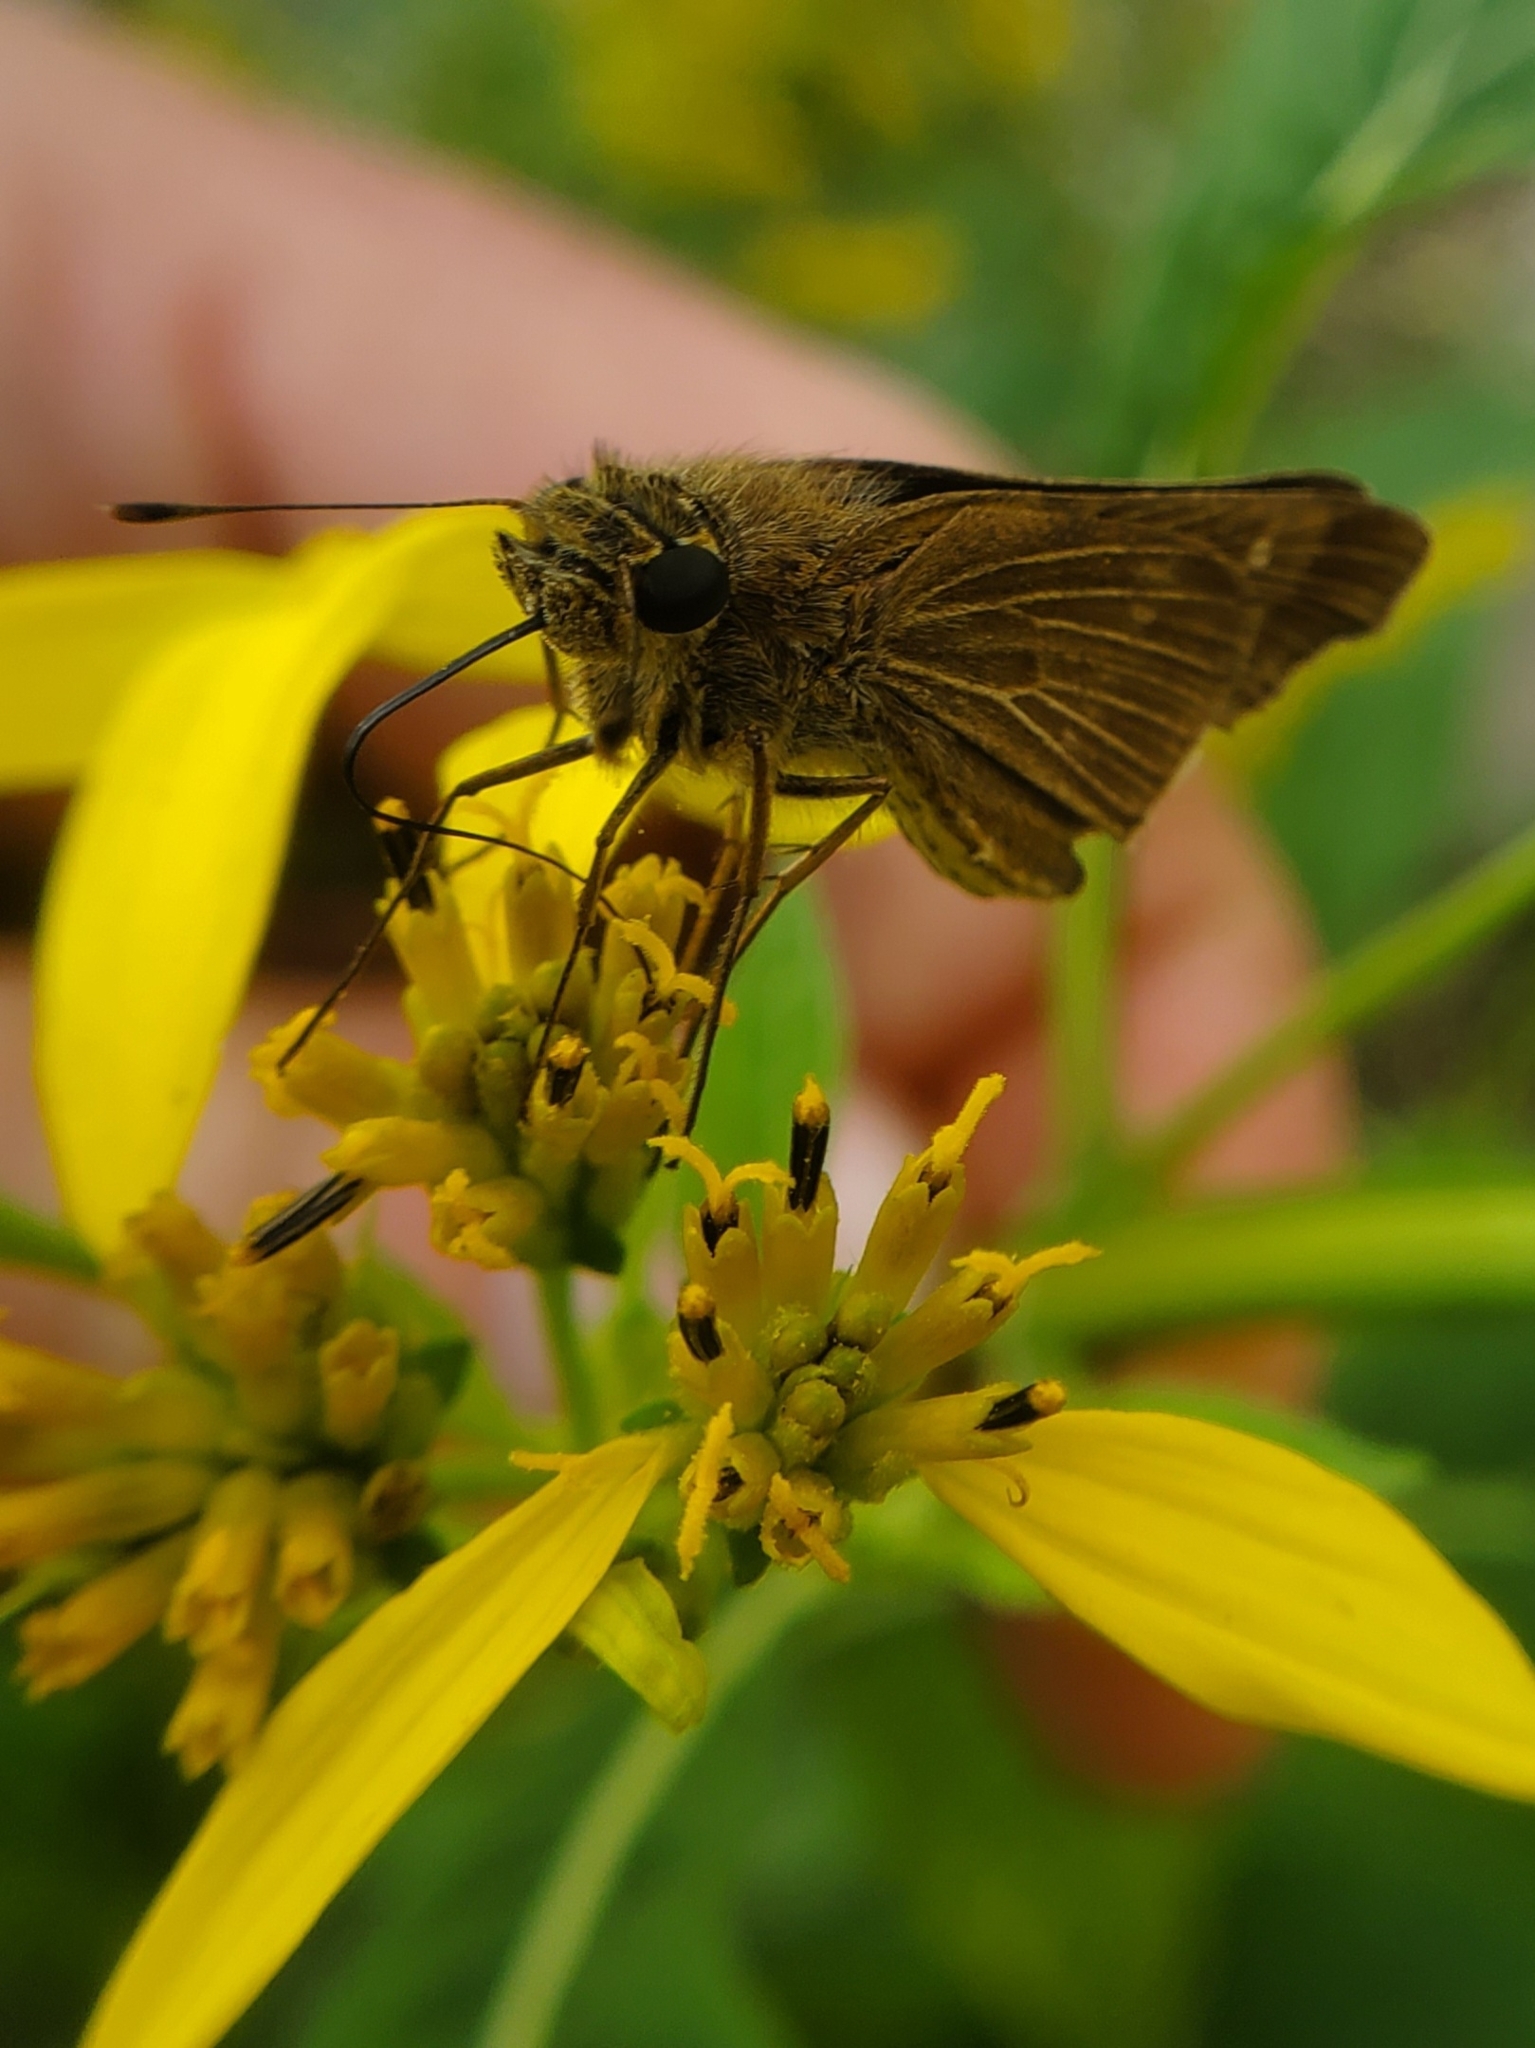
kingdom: Animalia
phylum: Arthropoda
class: Insecta
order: Lepidoptera
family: Hesperiidae
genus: Panoquina
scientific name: Panoquina ocola
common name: Ocola skipper
